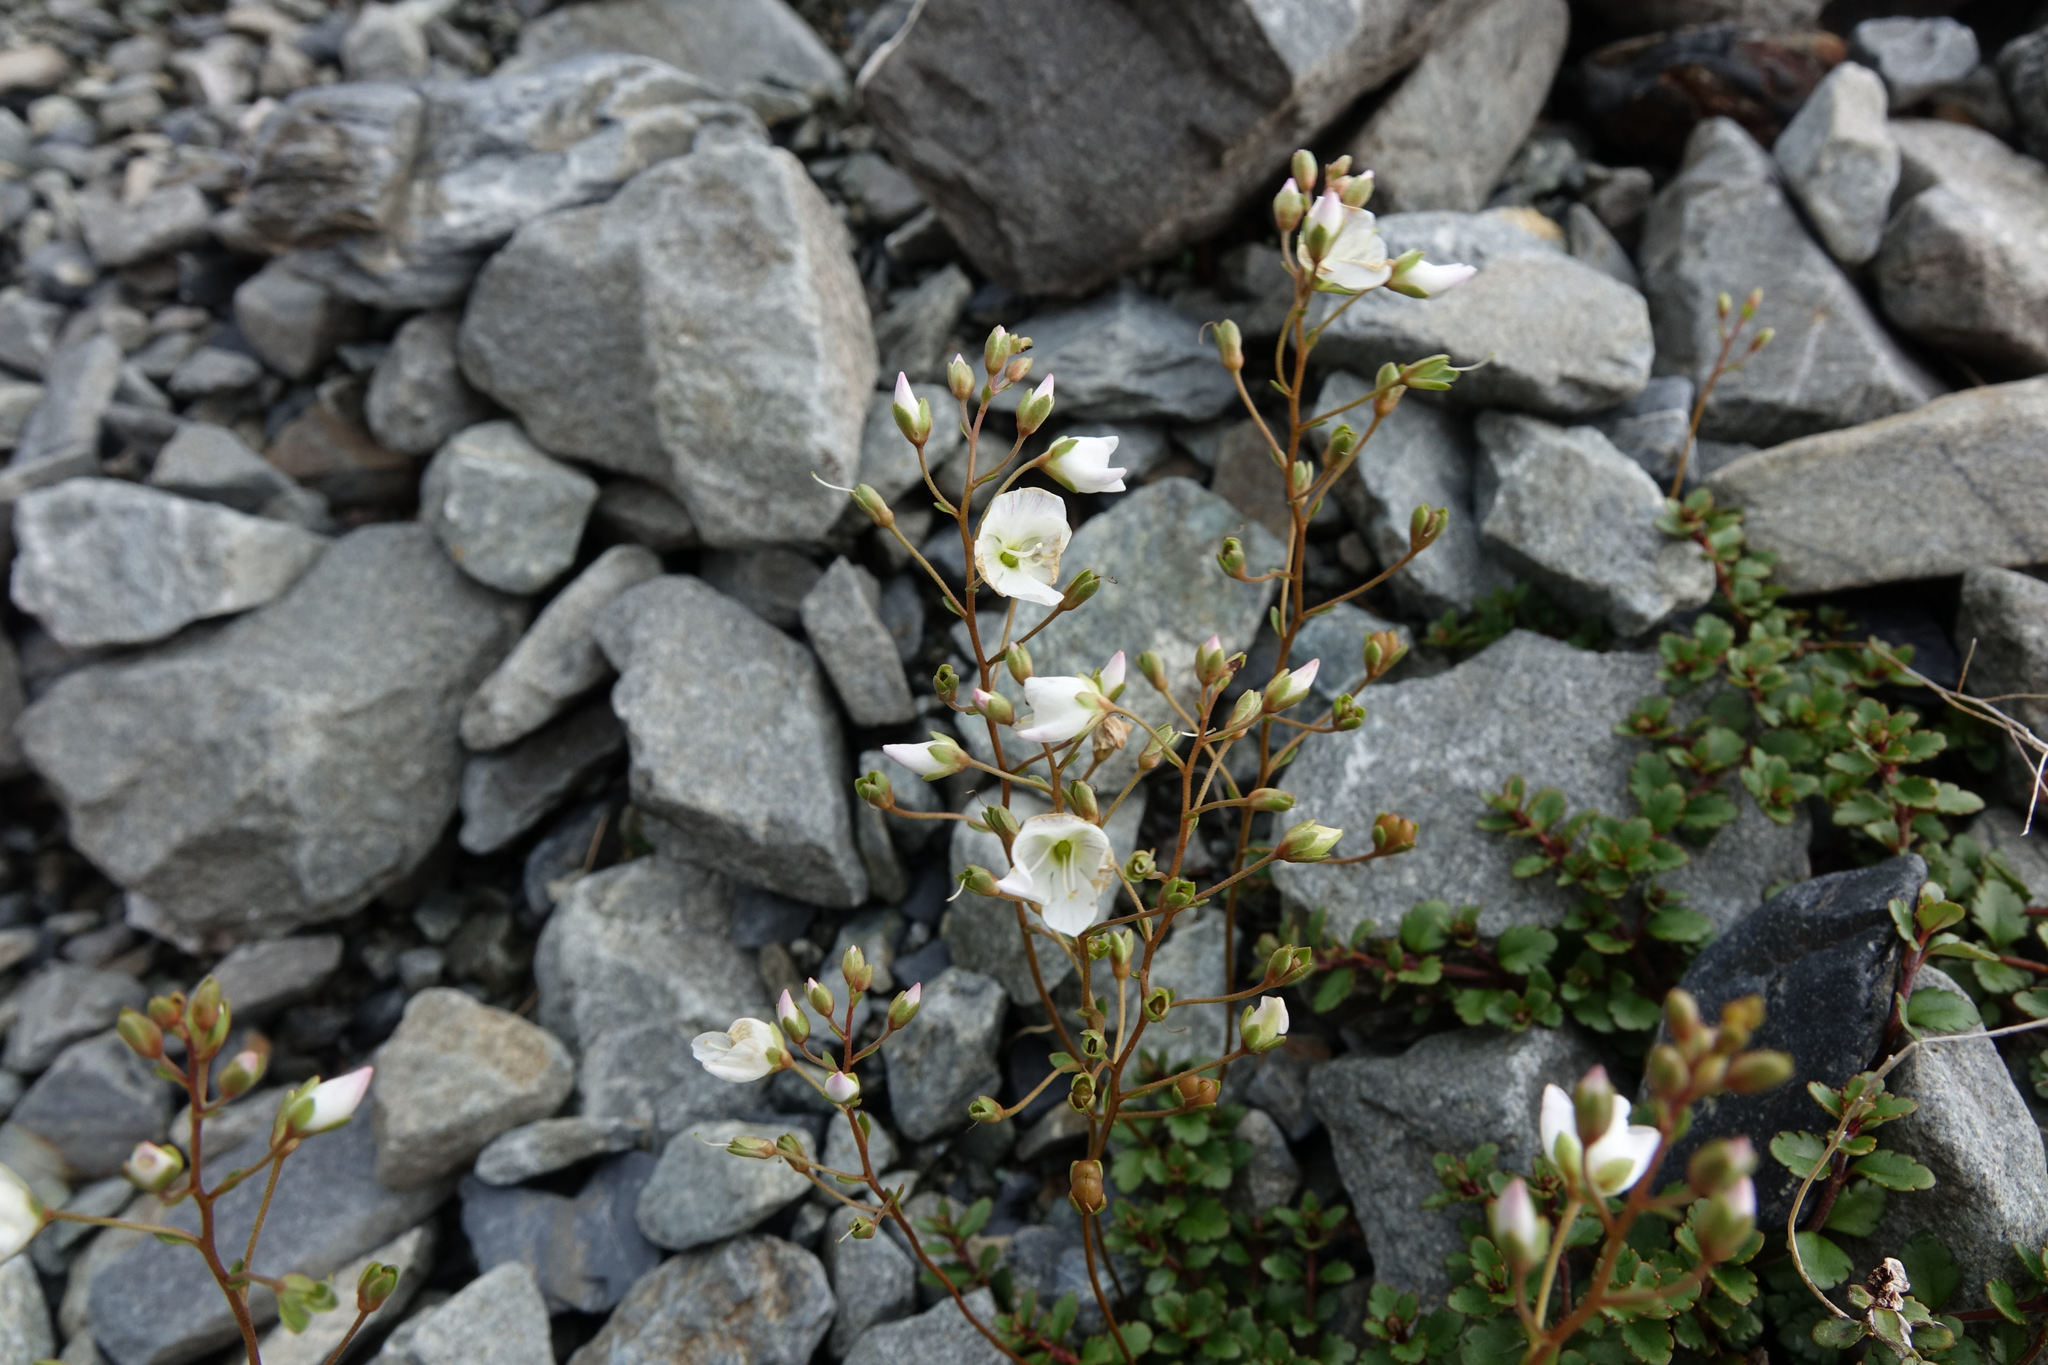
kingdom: Plantae
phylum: Tracheophyta
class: Magnoliopsida
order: Lamiales
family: Plantaginaceae
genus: Veronica
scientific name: Veronica lyallii
